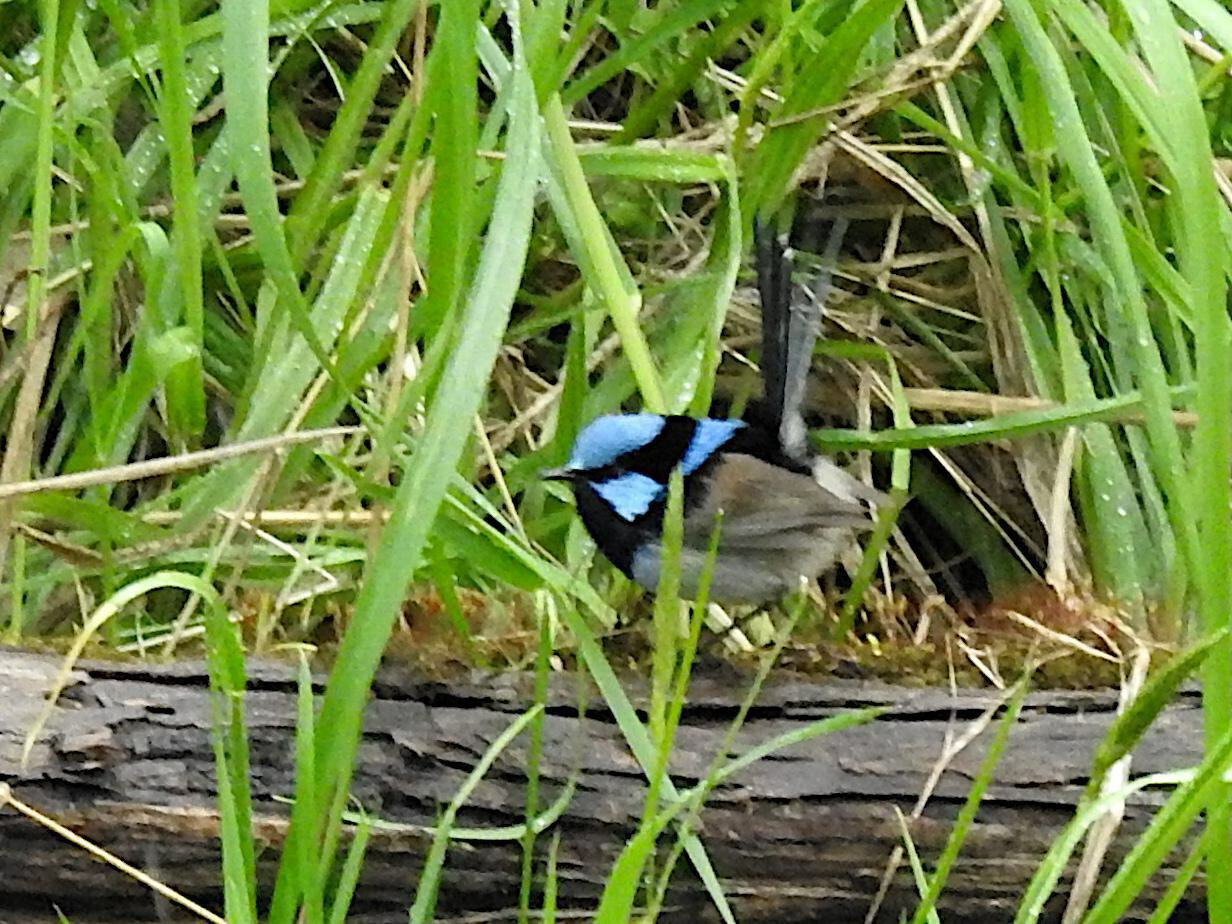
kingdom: Animalia
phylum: Chordata
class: Aves
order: Passeriformes
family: Maluridae
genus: Malurus
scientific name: Malurus cyaneus
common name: Superb fairywren
